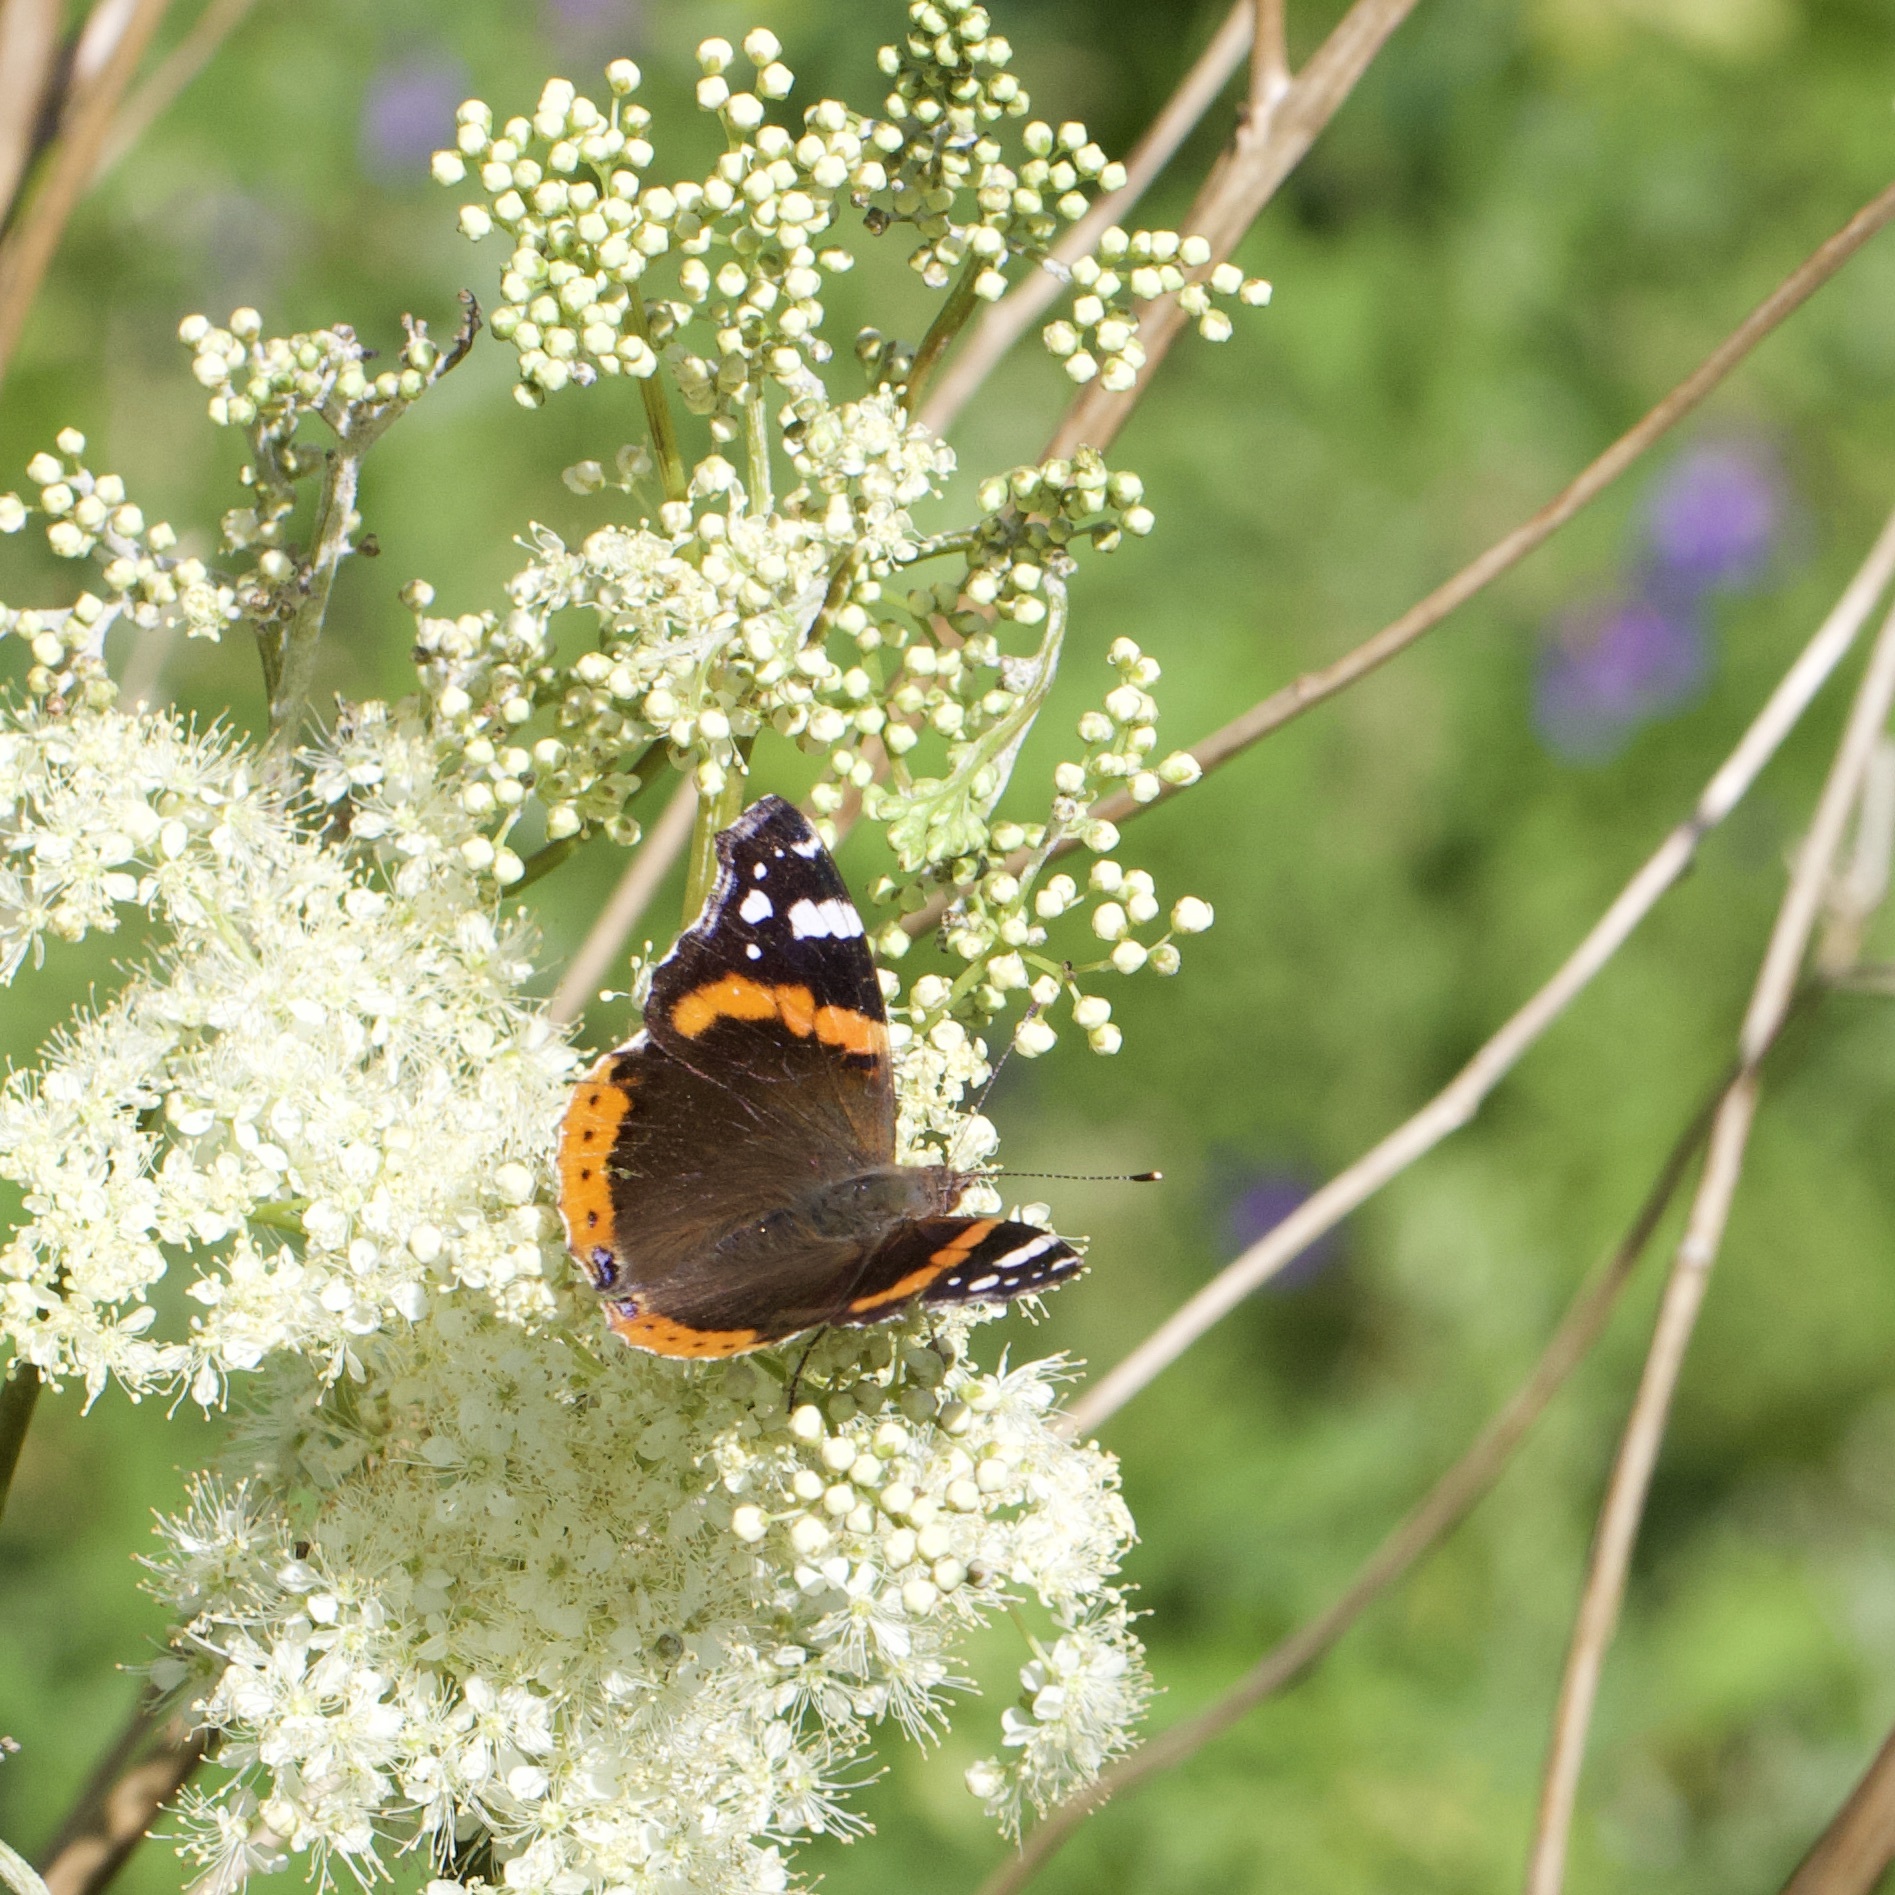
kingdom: Animalia
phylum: Arthropoda
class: Insecta
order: Lepidoptera
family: Nymphalidae
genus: Vanessa
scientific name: Vanessa atalanta
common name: Red admiral
